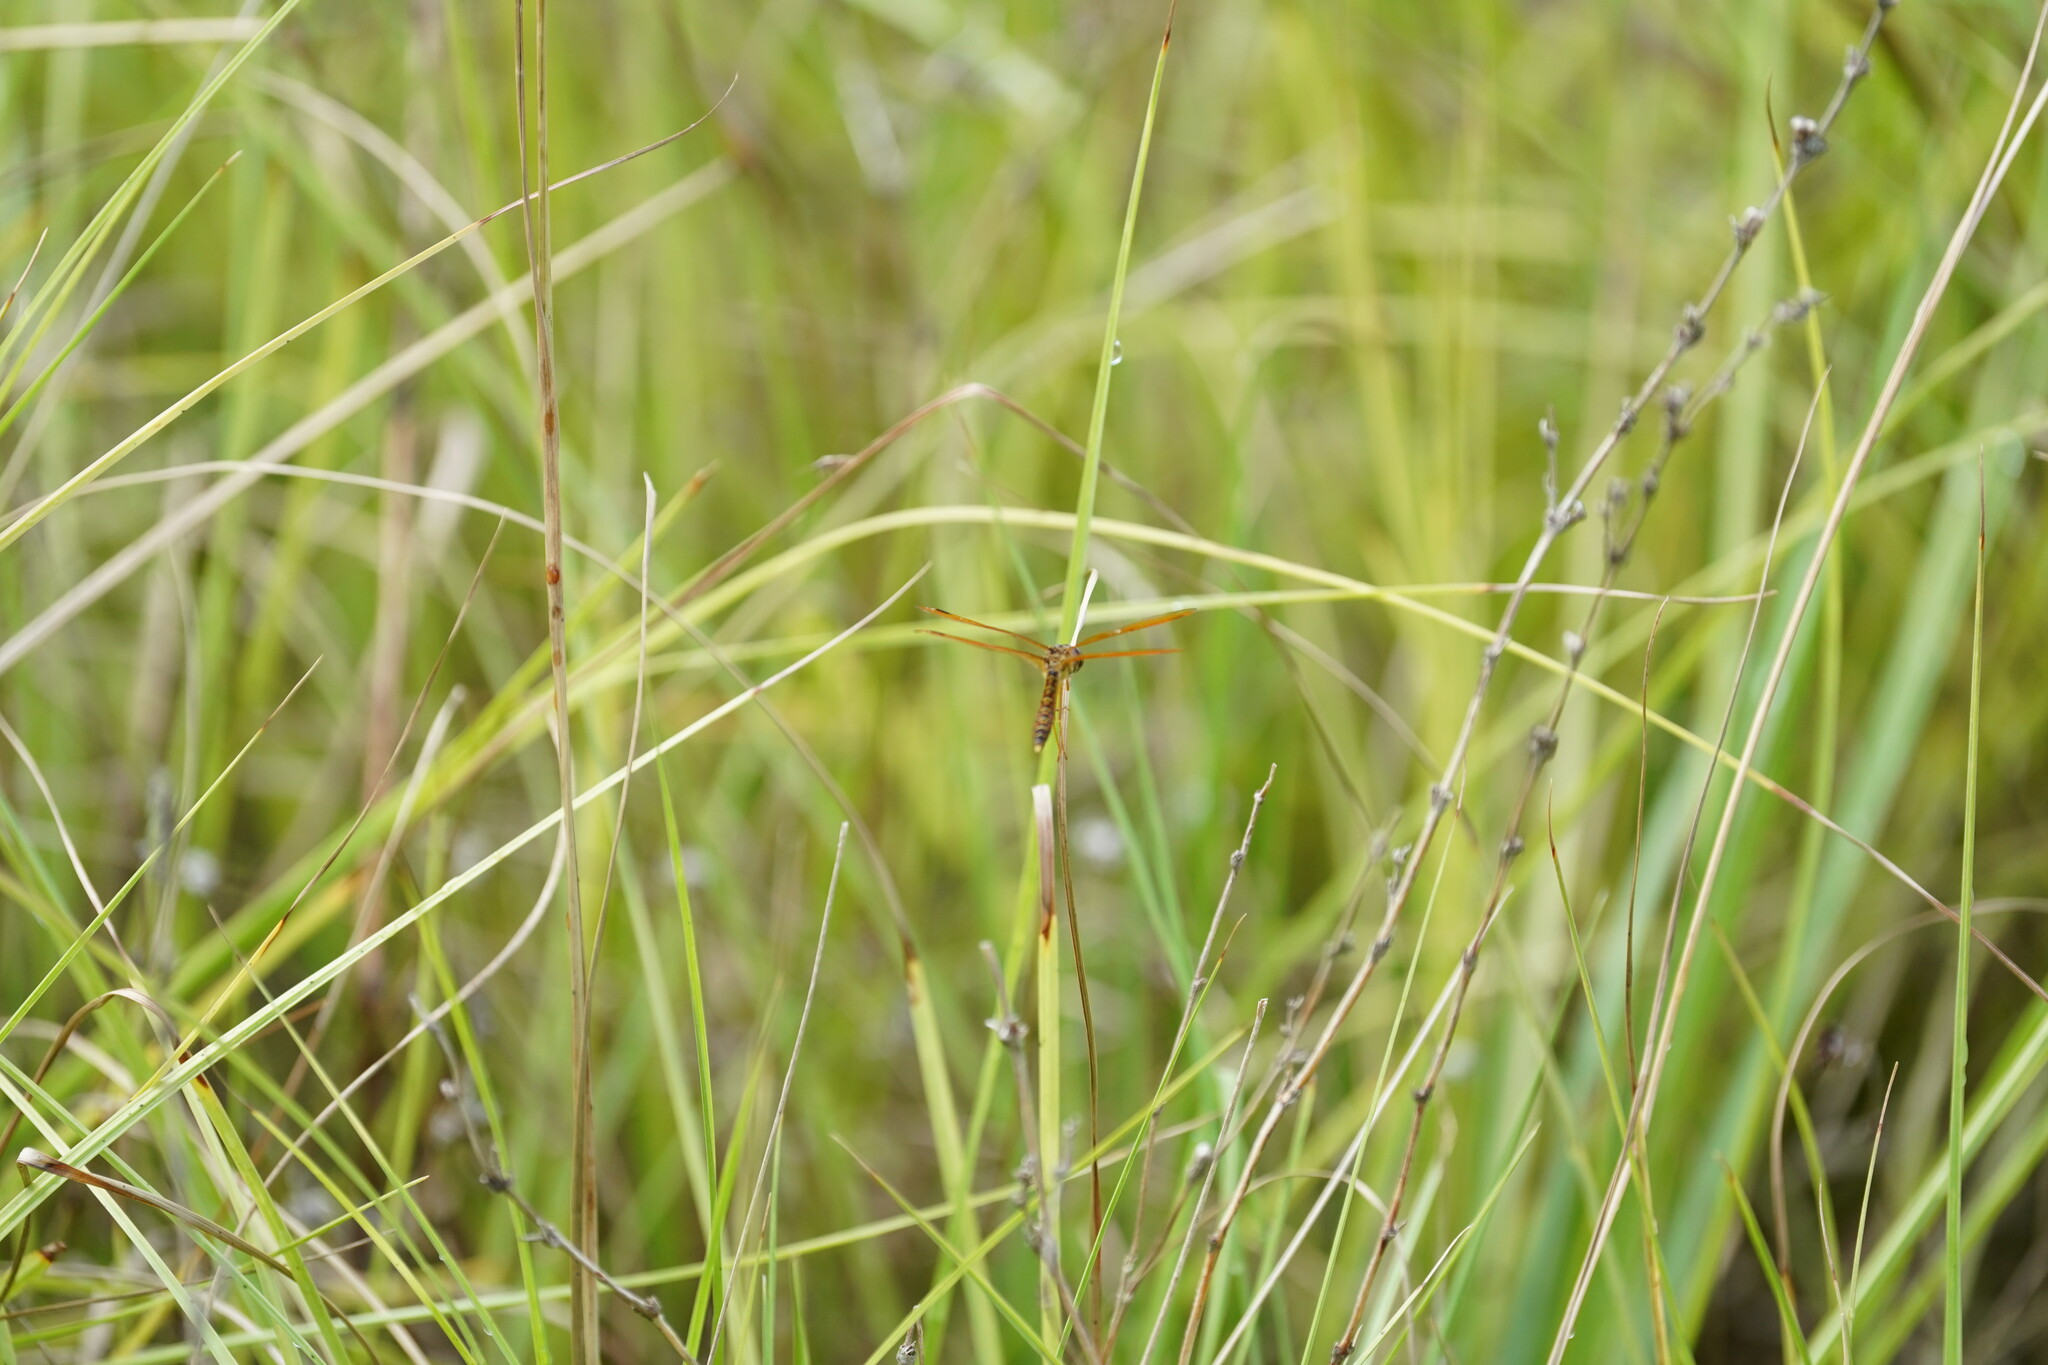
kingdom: Animalia
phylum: Arthropoda
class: Insecta
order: Odonata
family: Libellulidae
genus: Perithemis
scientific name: Perithemis tenera
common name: Eastern amberwing
